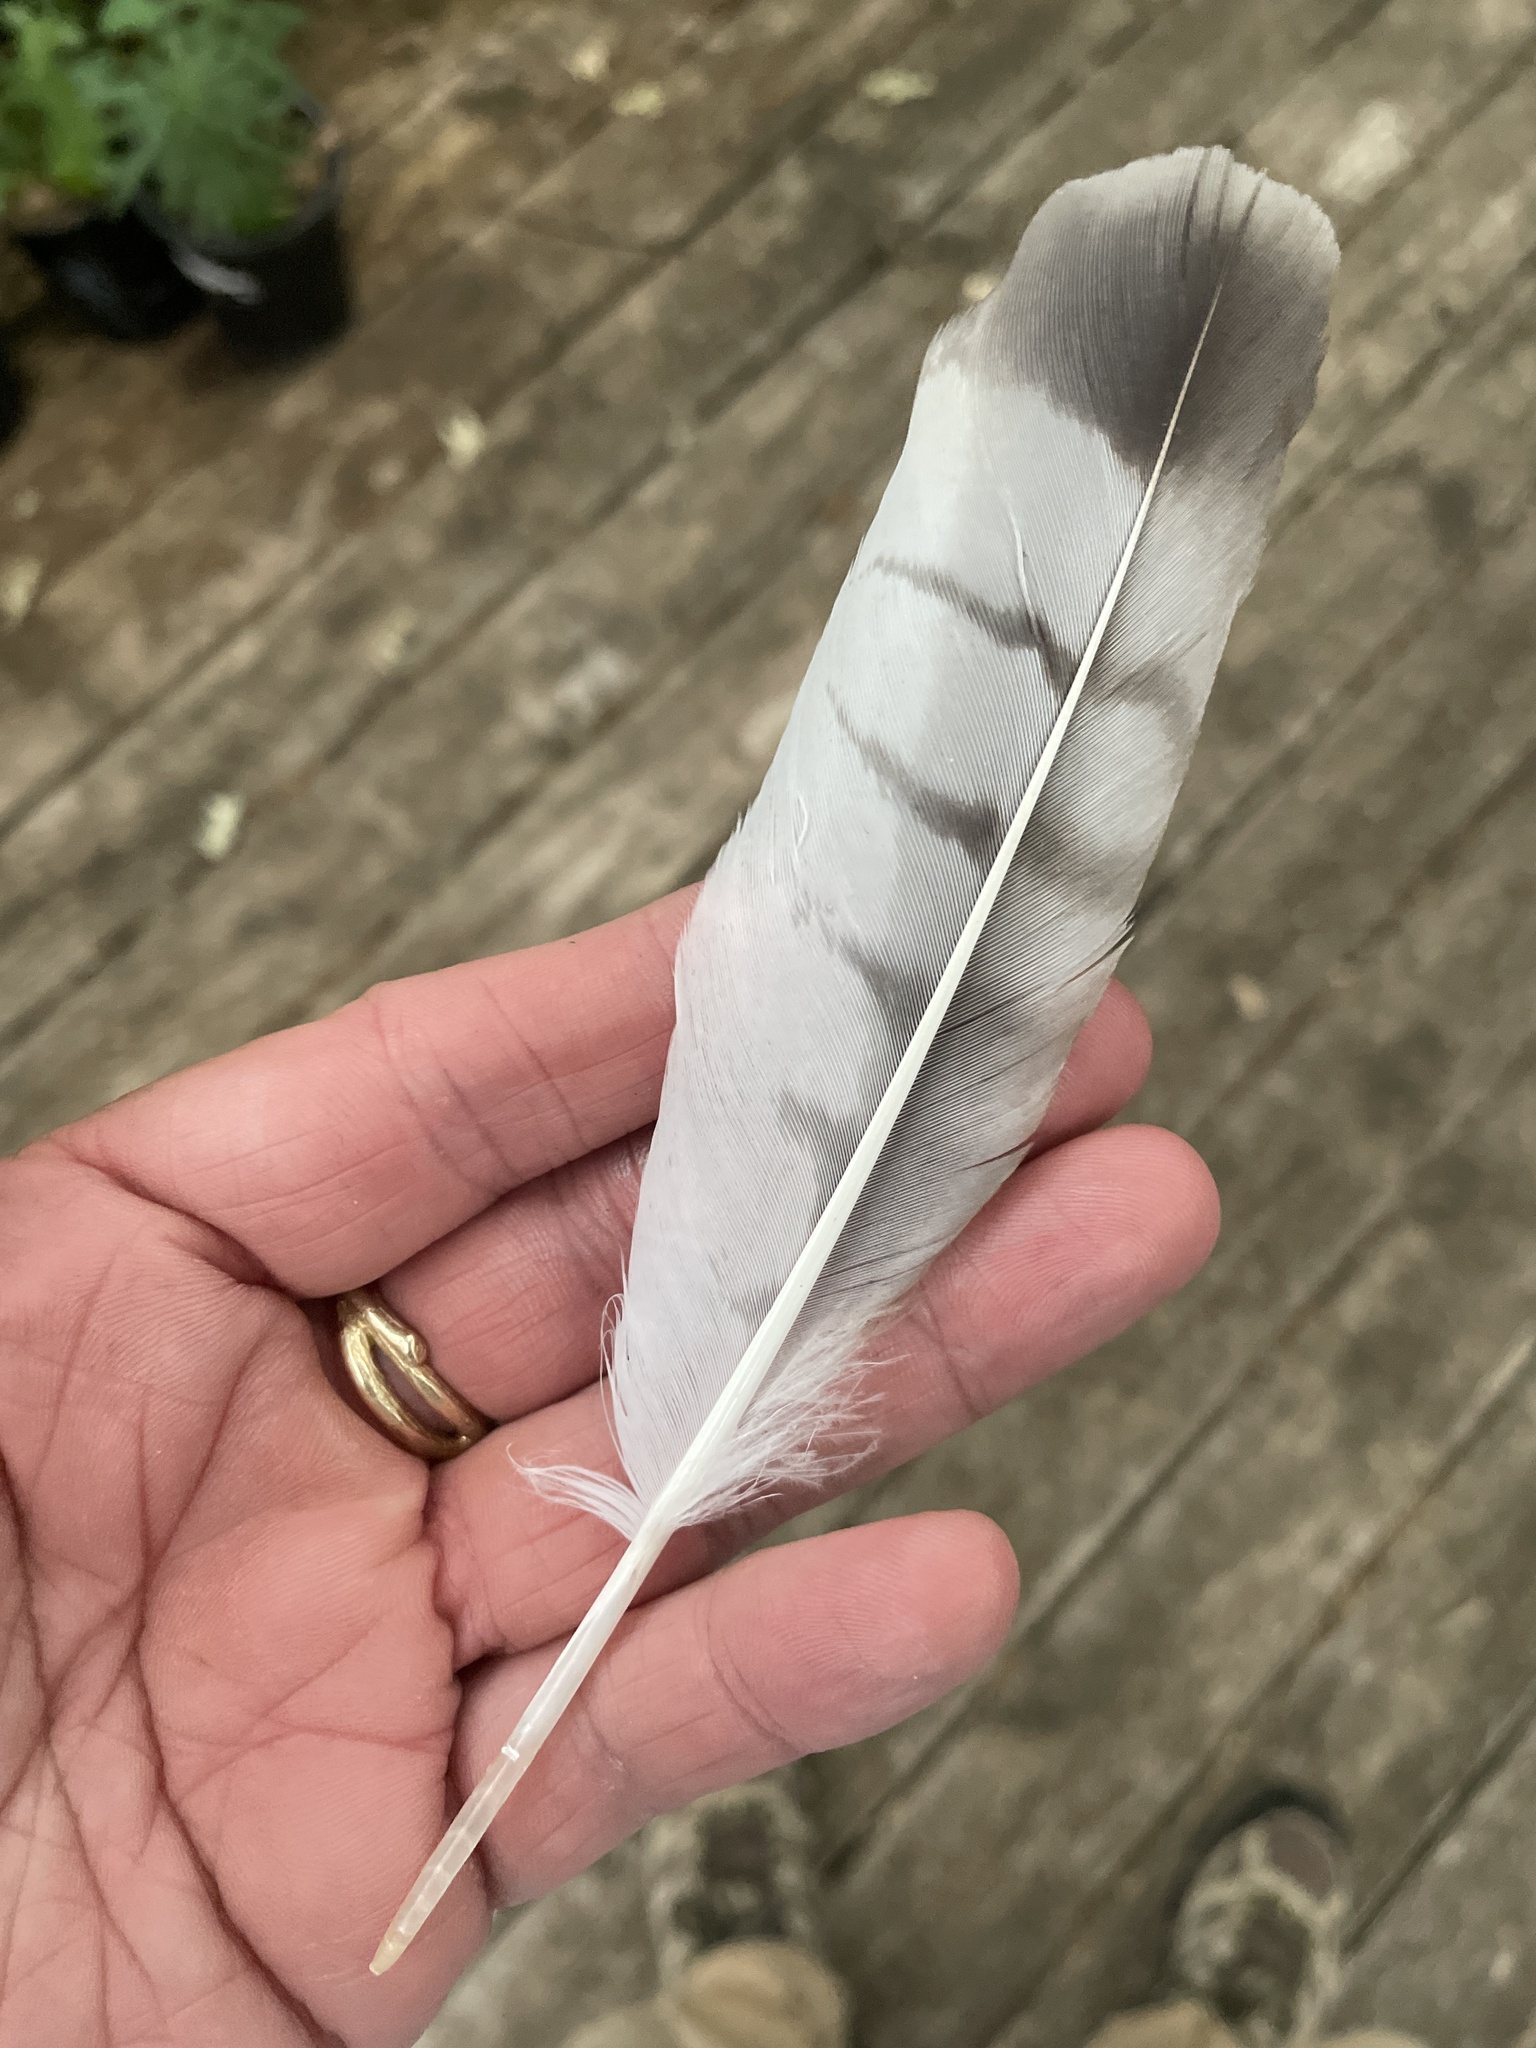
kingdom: Animalia
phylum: Chordata
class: Aves
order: Accipitriformes
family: Accipitridae
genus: Buteo
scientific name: Buteo platypterus
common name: Broad-winged hawk
